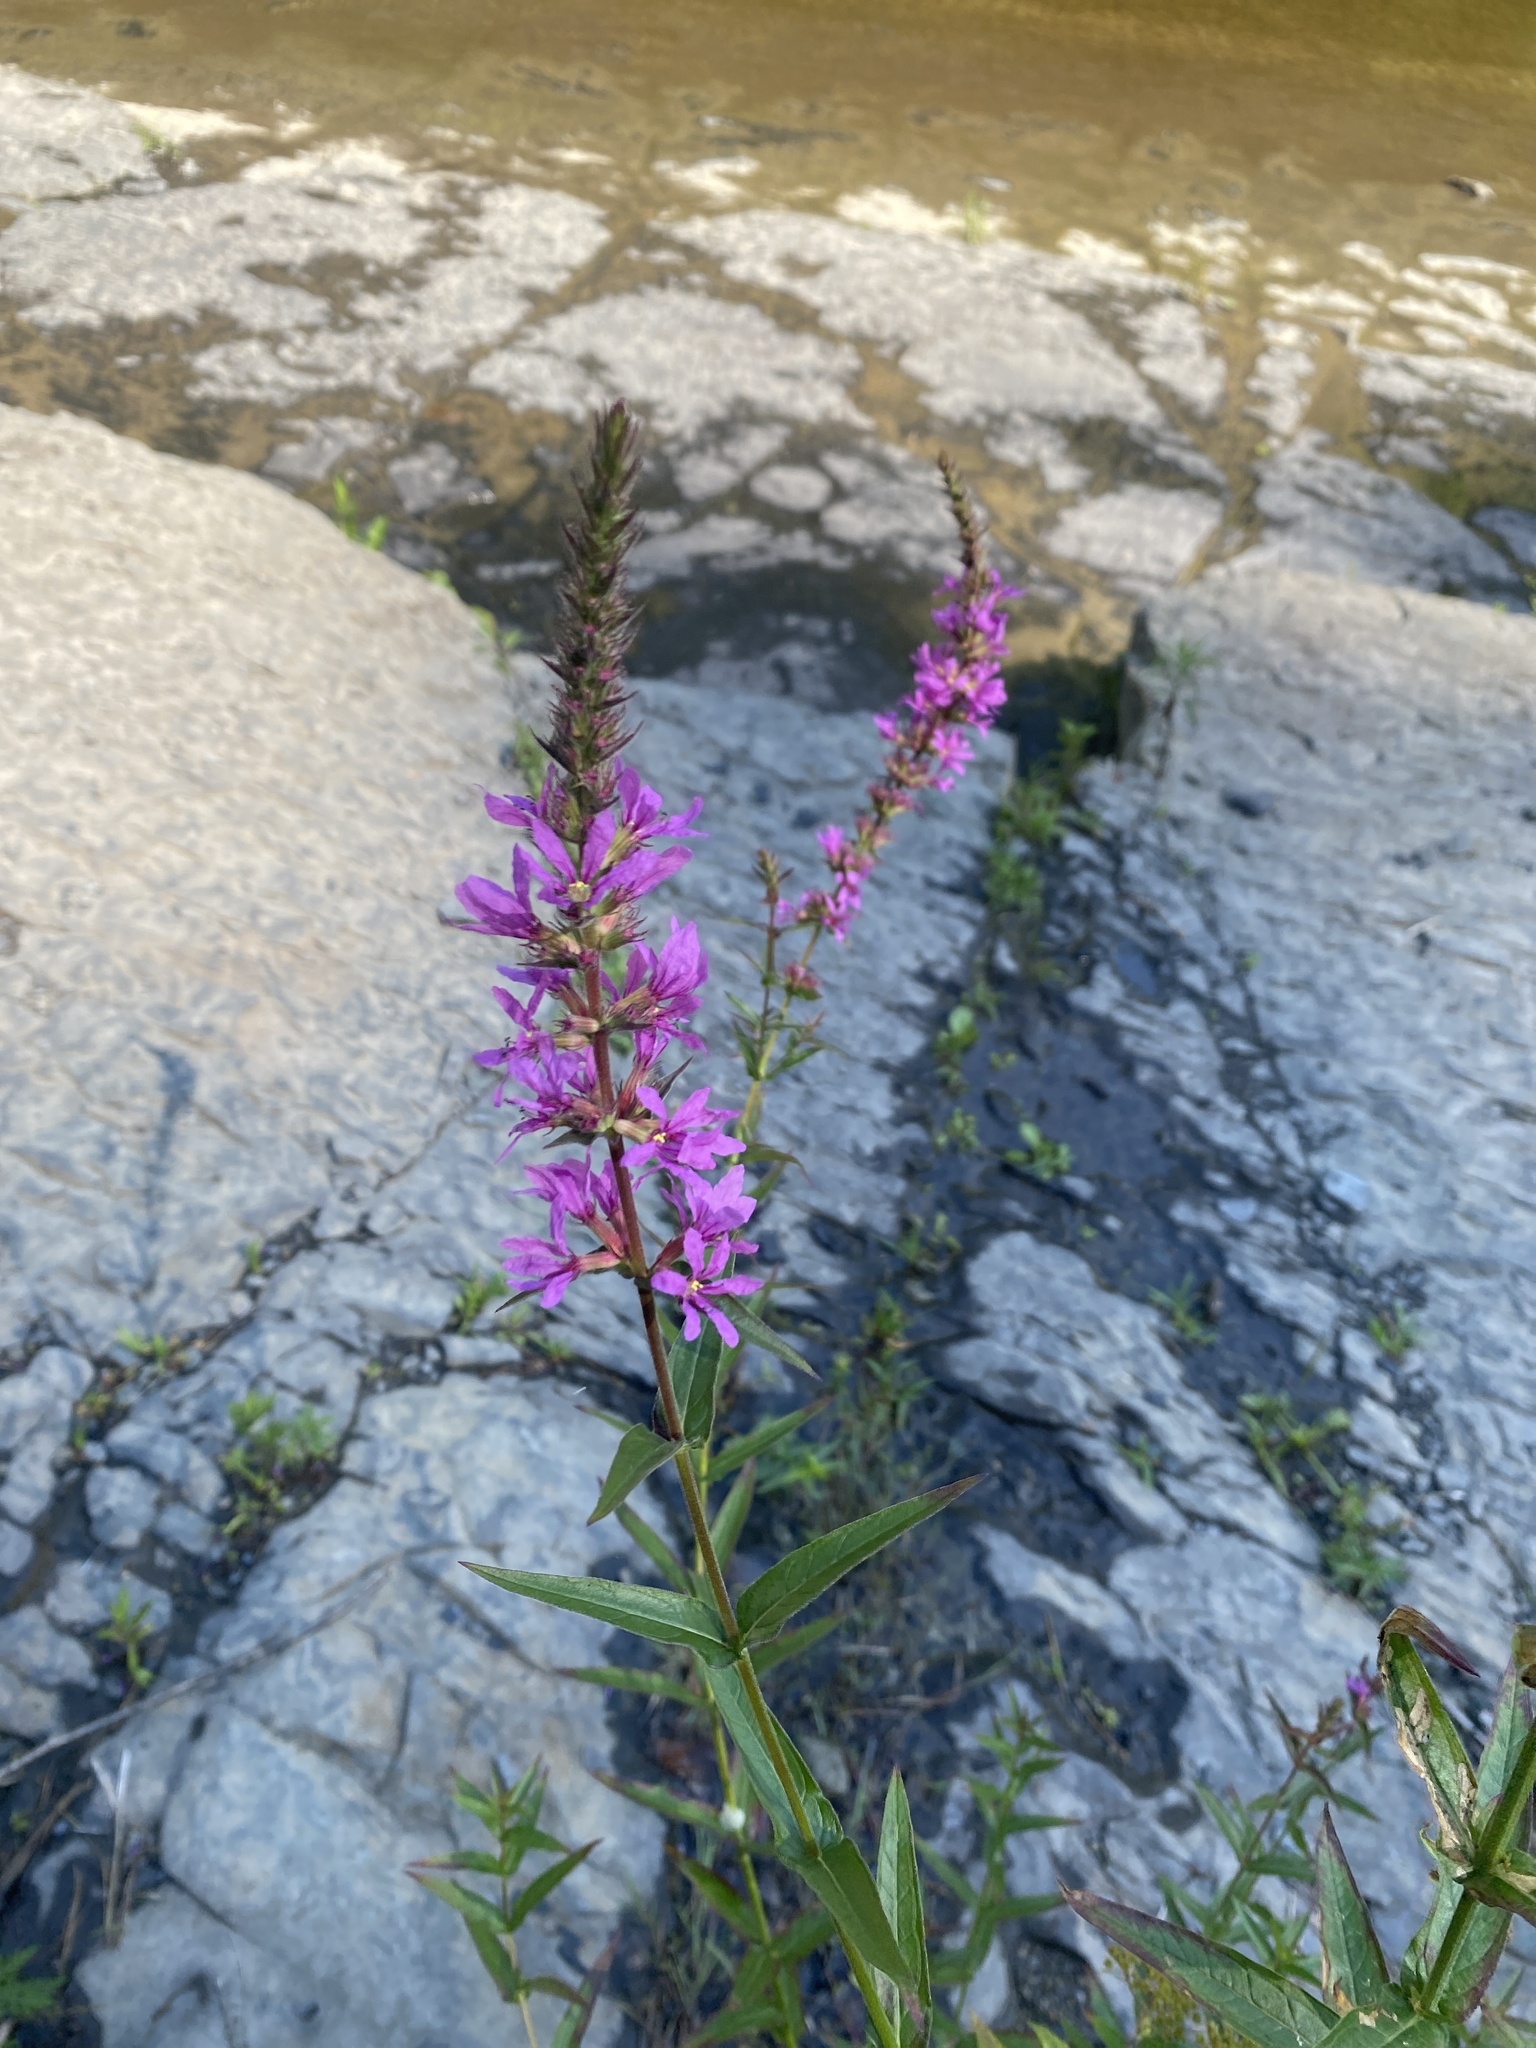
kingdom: Plantae
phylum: Tracheophyta
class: Magnoliopsida
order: Myrtales
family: Lythraceae
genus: Lythrum
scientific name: Lythrum salicaria
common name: Purple loosestrife
